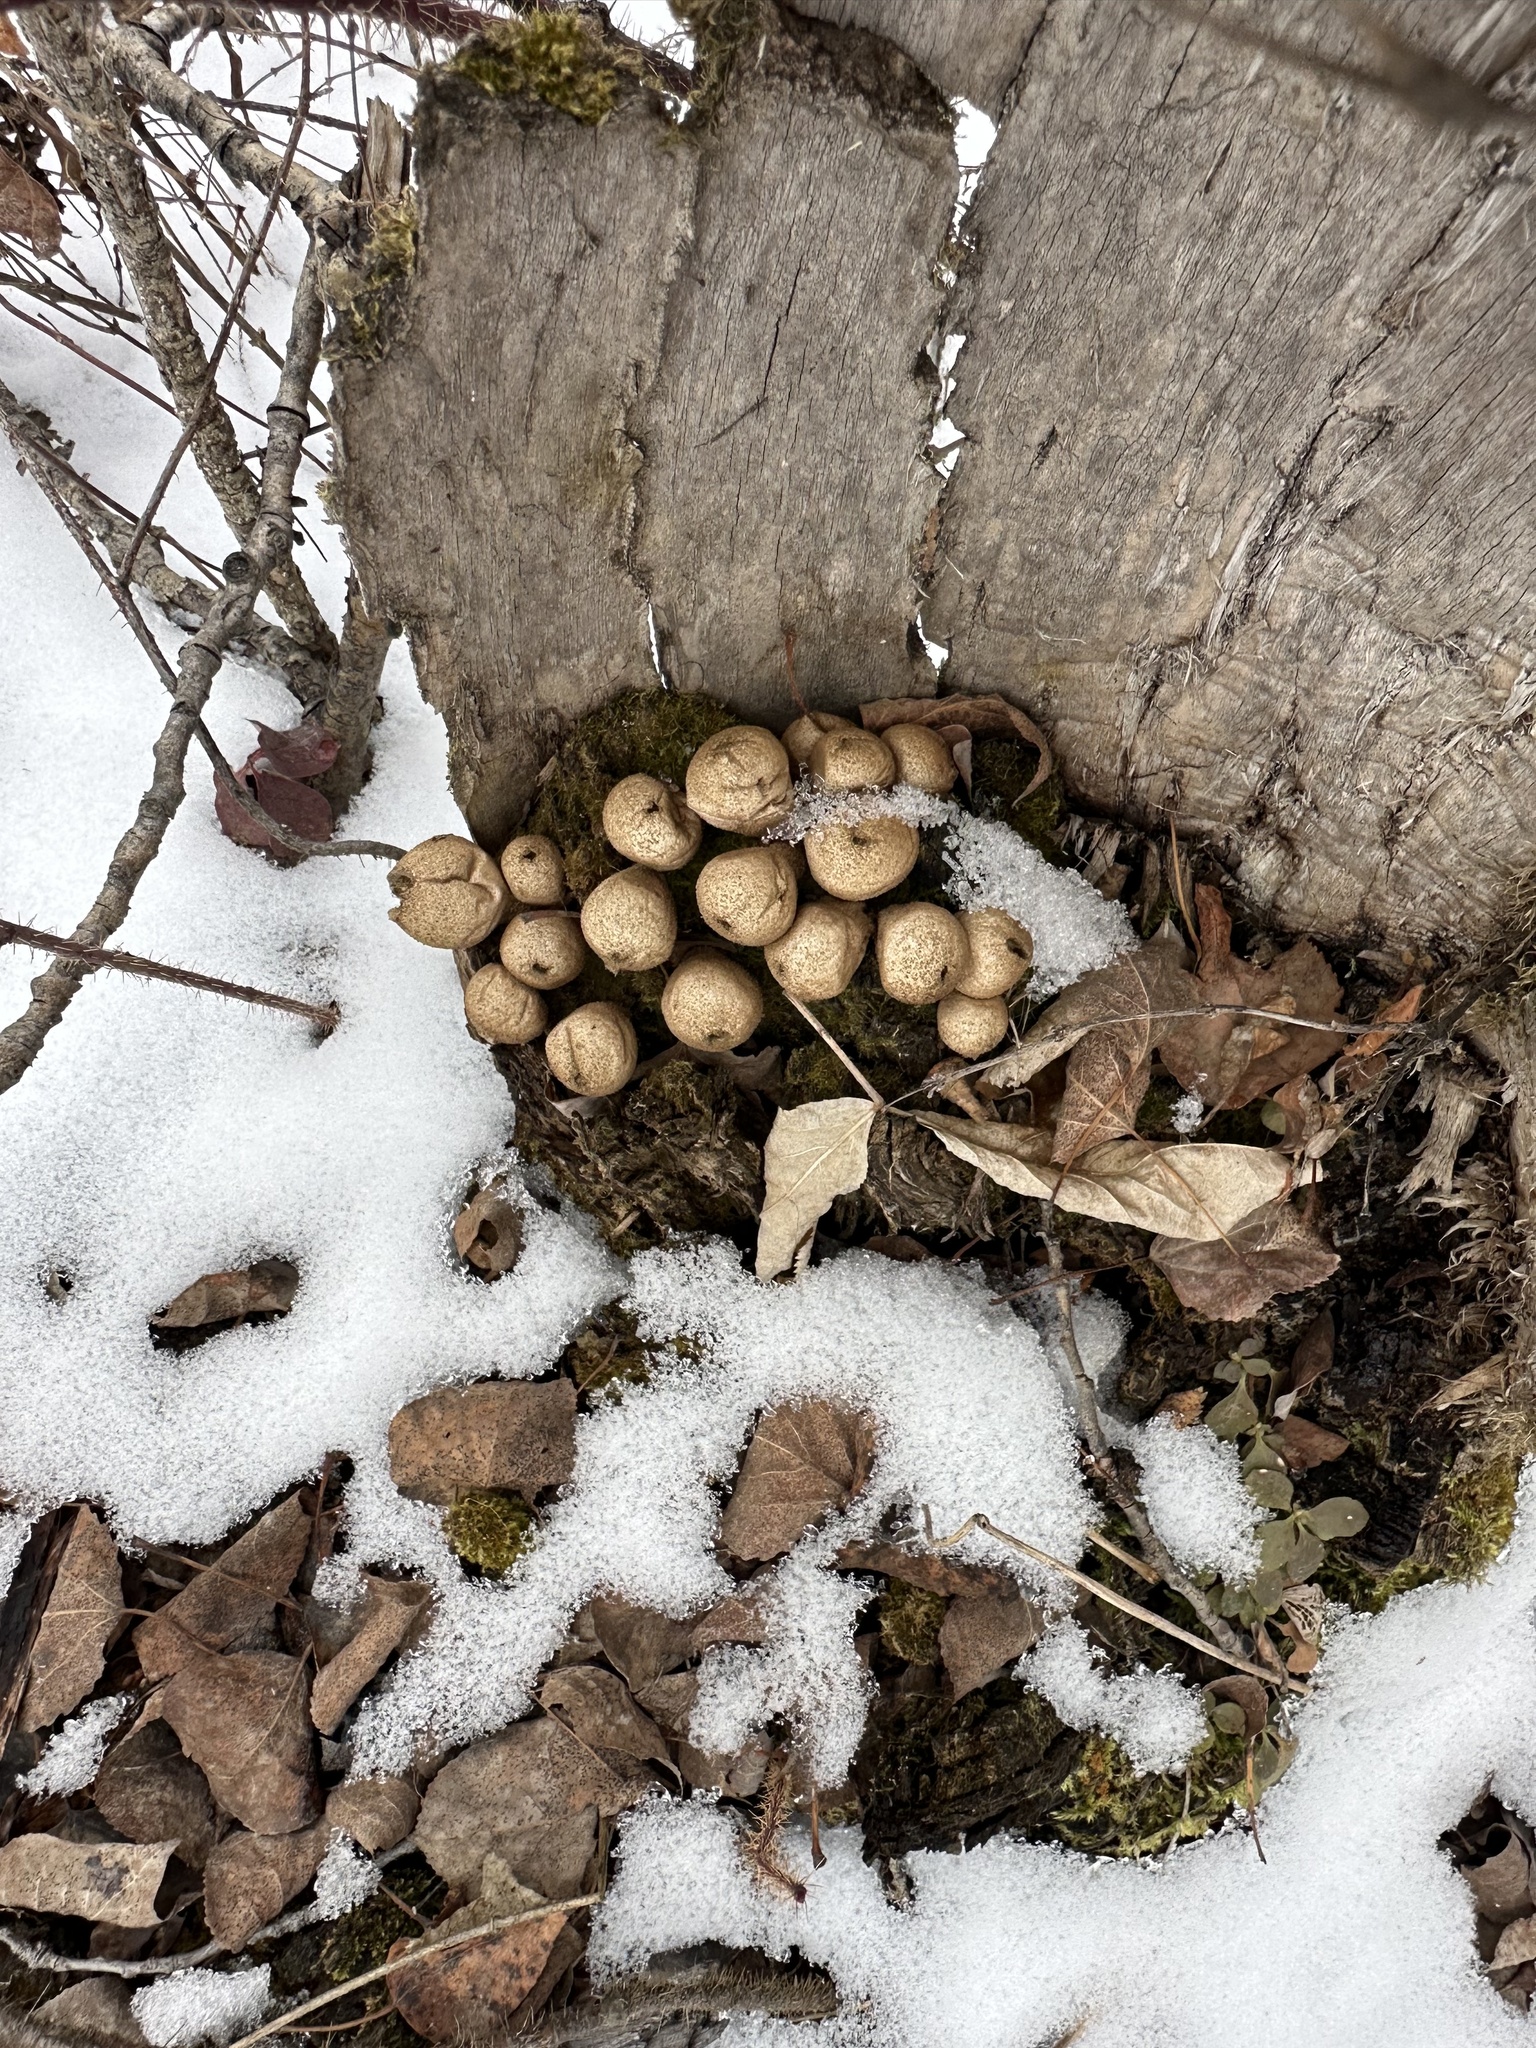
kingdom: Fungi
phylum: Basidiomycota
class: Agaricomycetes
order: Agaricales
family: Lycoperdaceae
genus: Apioperdon
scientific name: Apioperdon pyriforme
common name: Pear-shaped puffball
